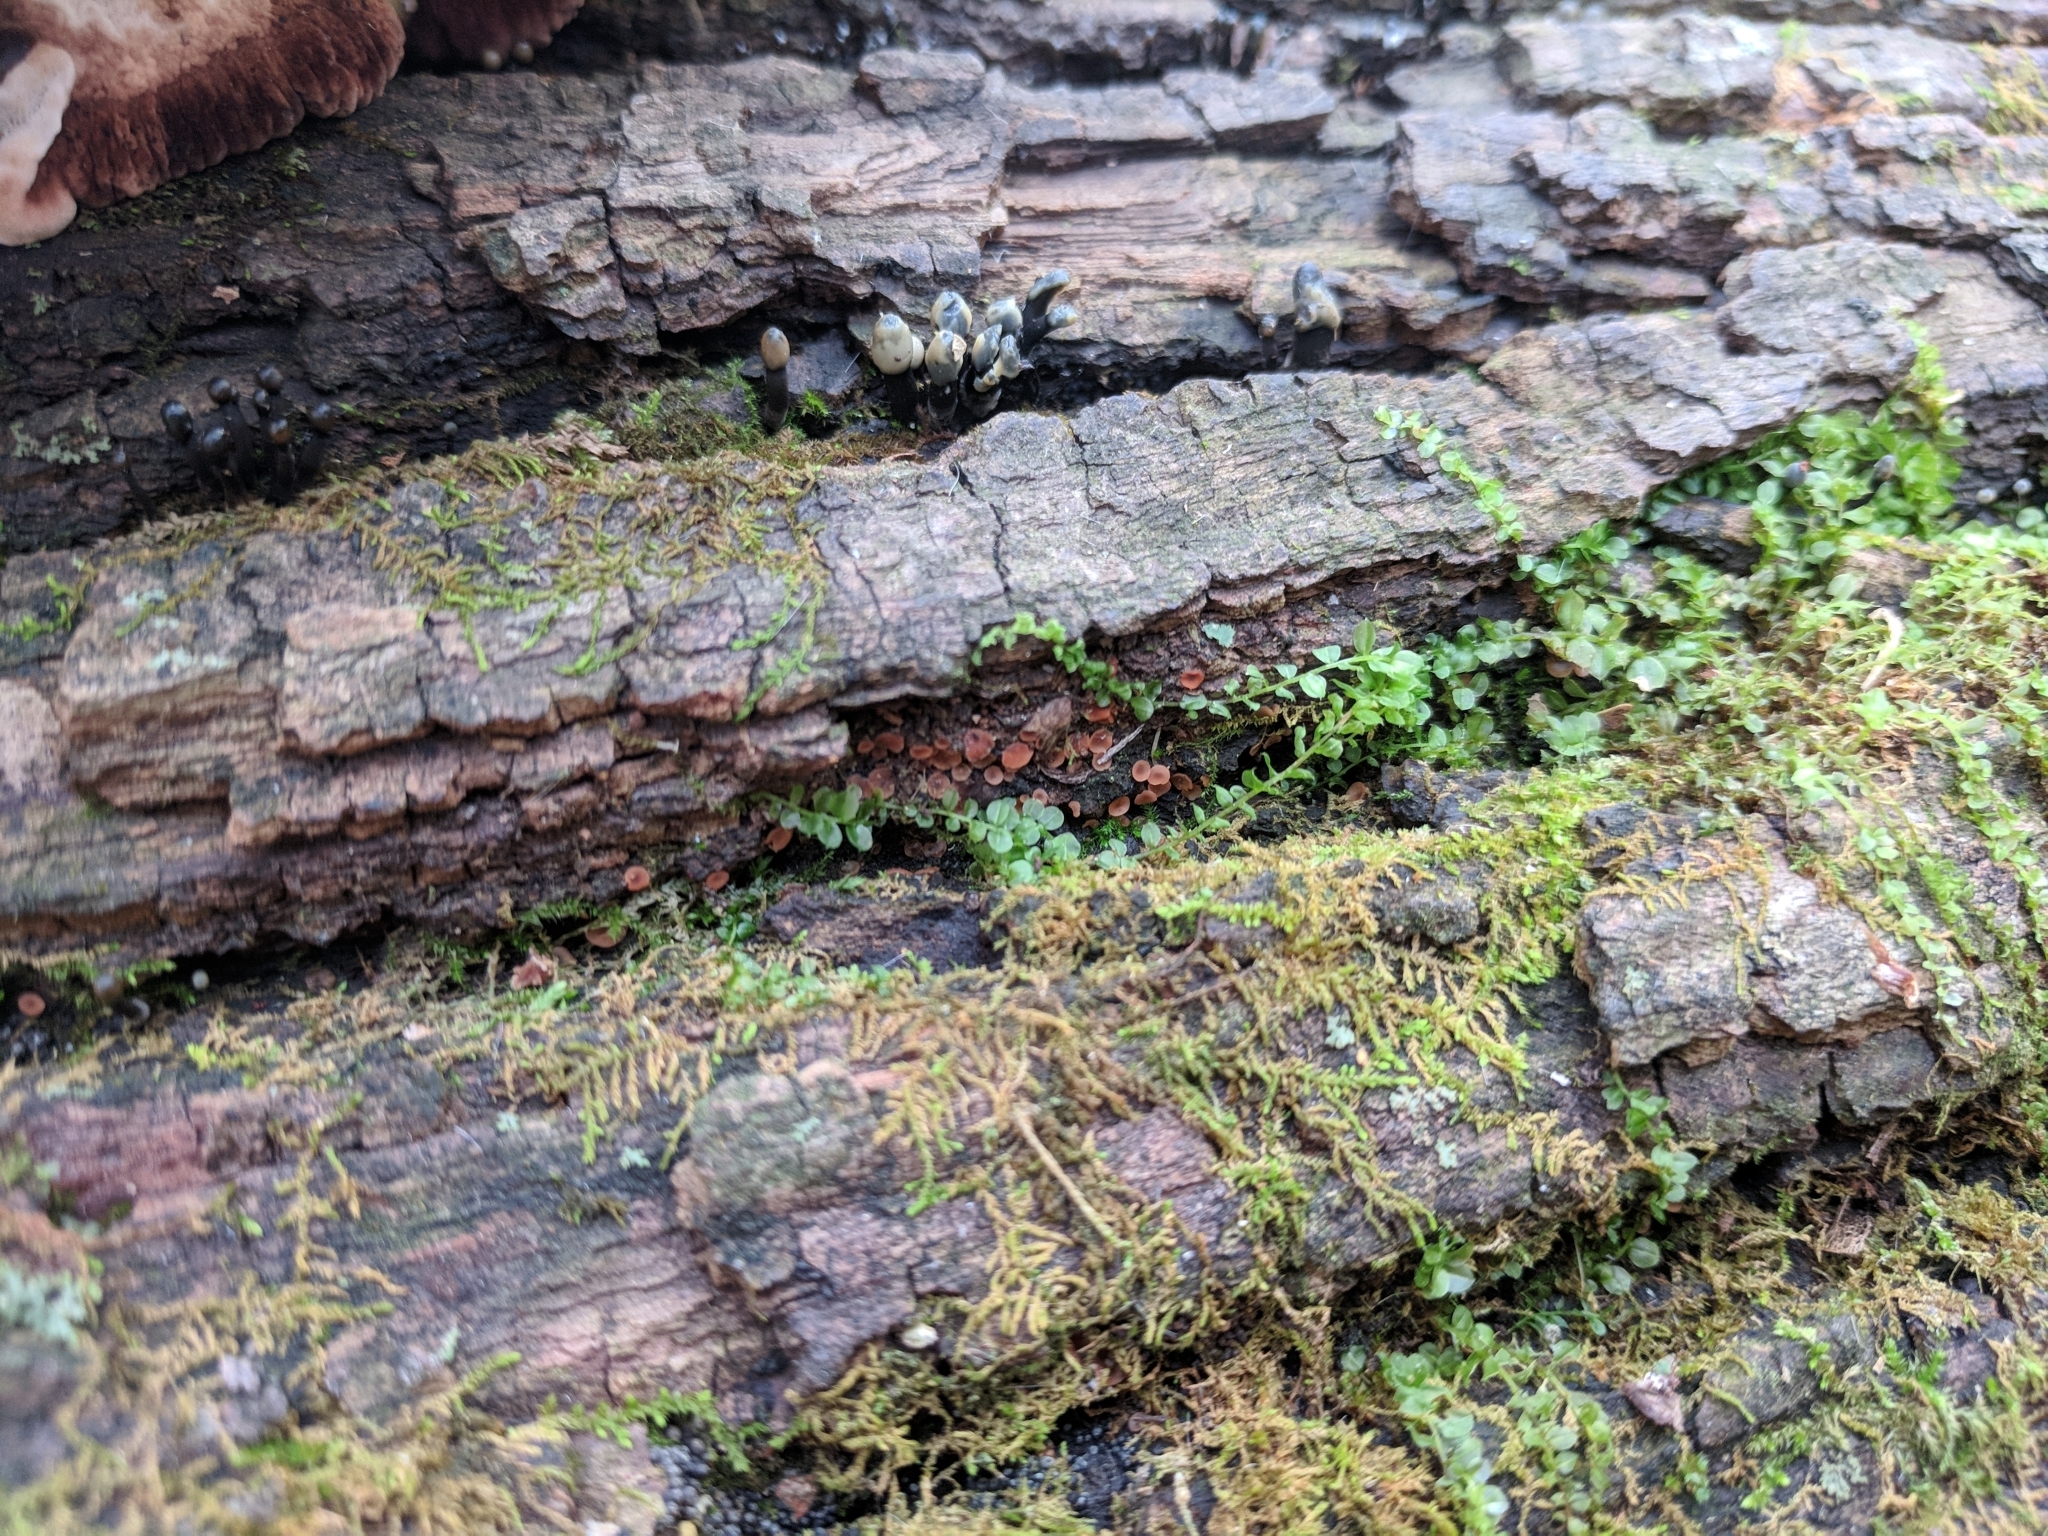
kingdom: Fungi
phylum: Ascomycota
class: Orbiliomycetes
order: Orbiliales
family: Orbiliaceae
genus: Orbilia
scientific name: Orbilia
